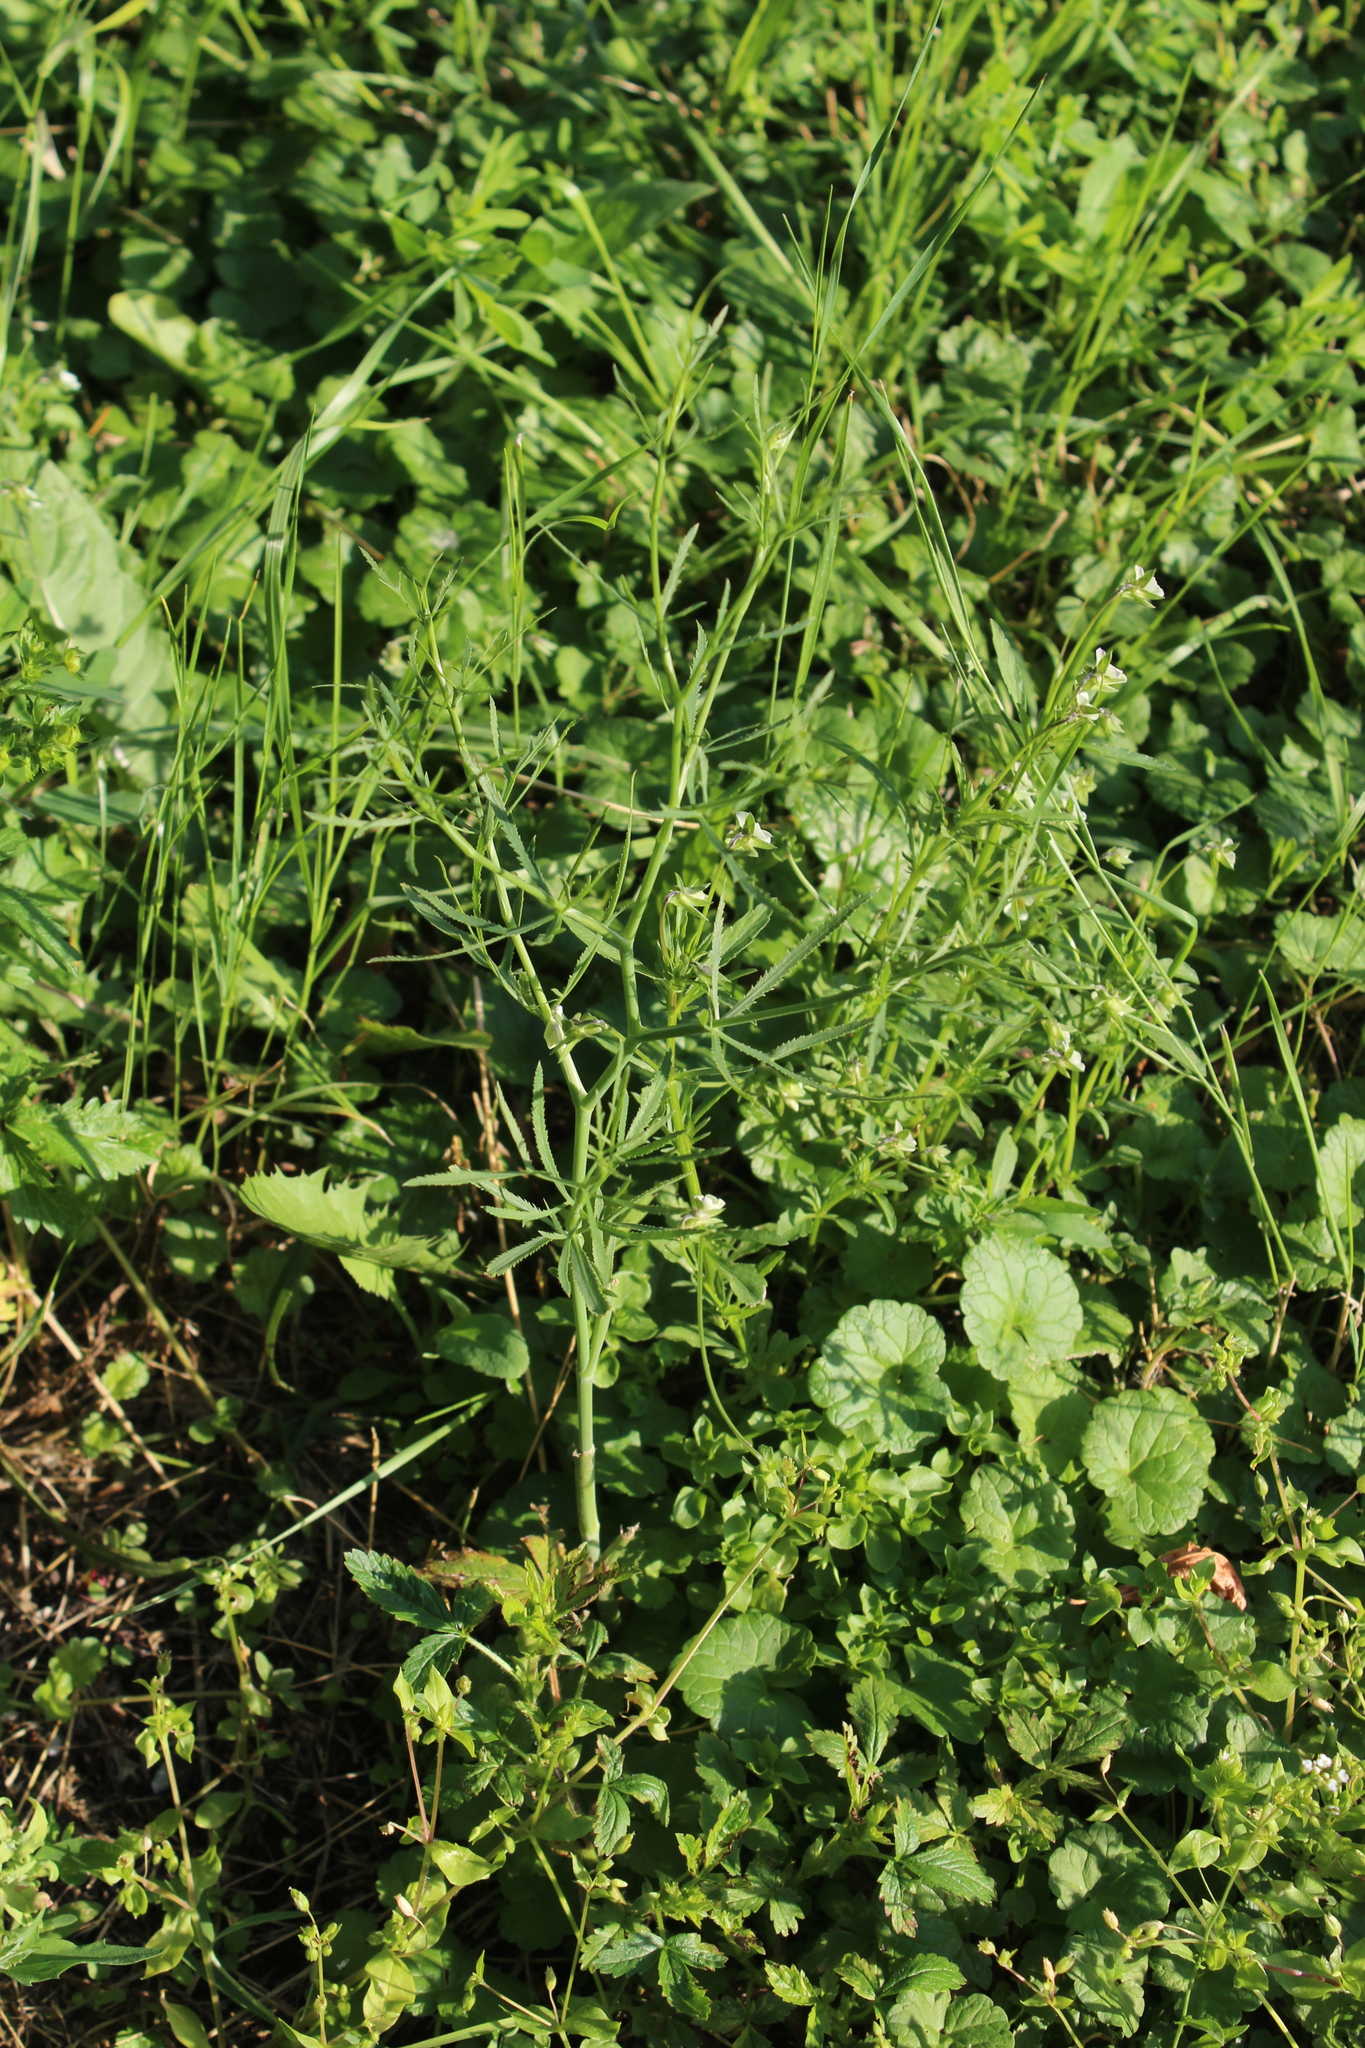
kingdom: Plantae
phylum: Tracheophyta
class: Magnoliopsida
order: Apiales
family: Apiaceae
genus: Falcaria
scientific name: Falcaria vulgaris
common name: Longleaf
